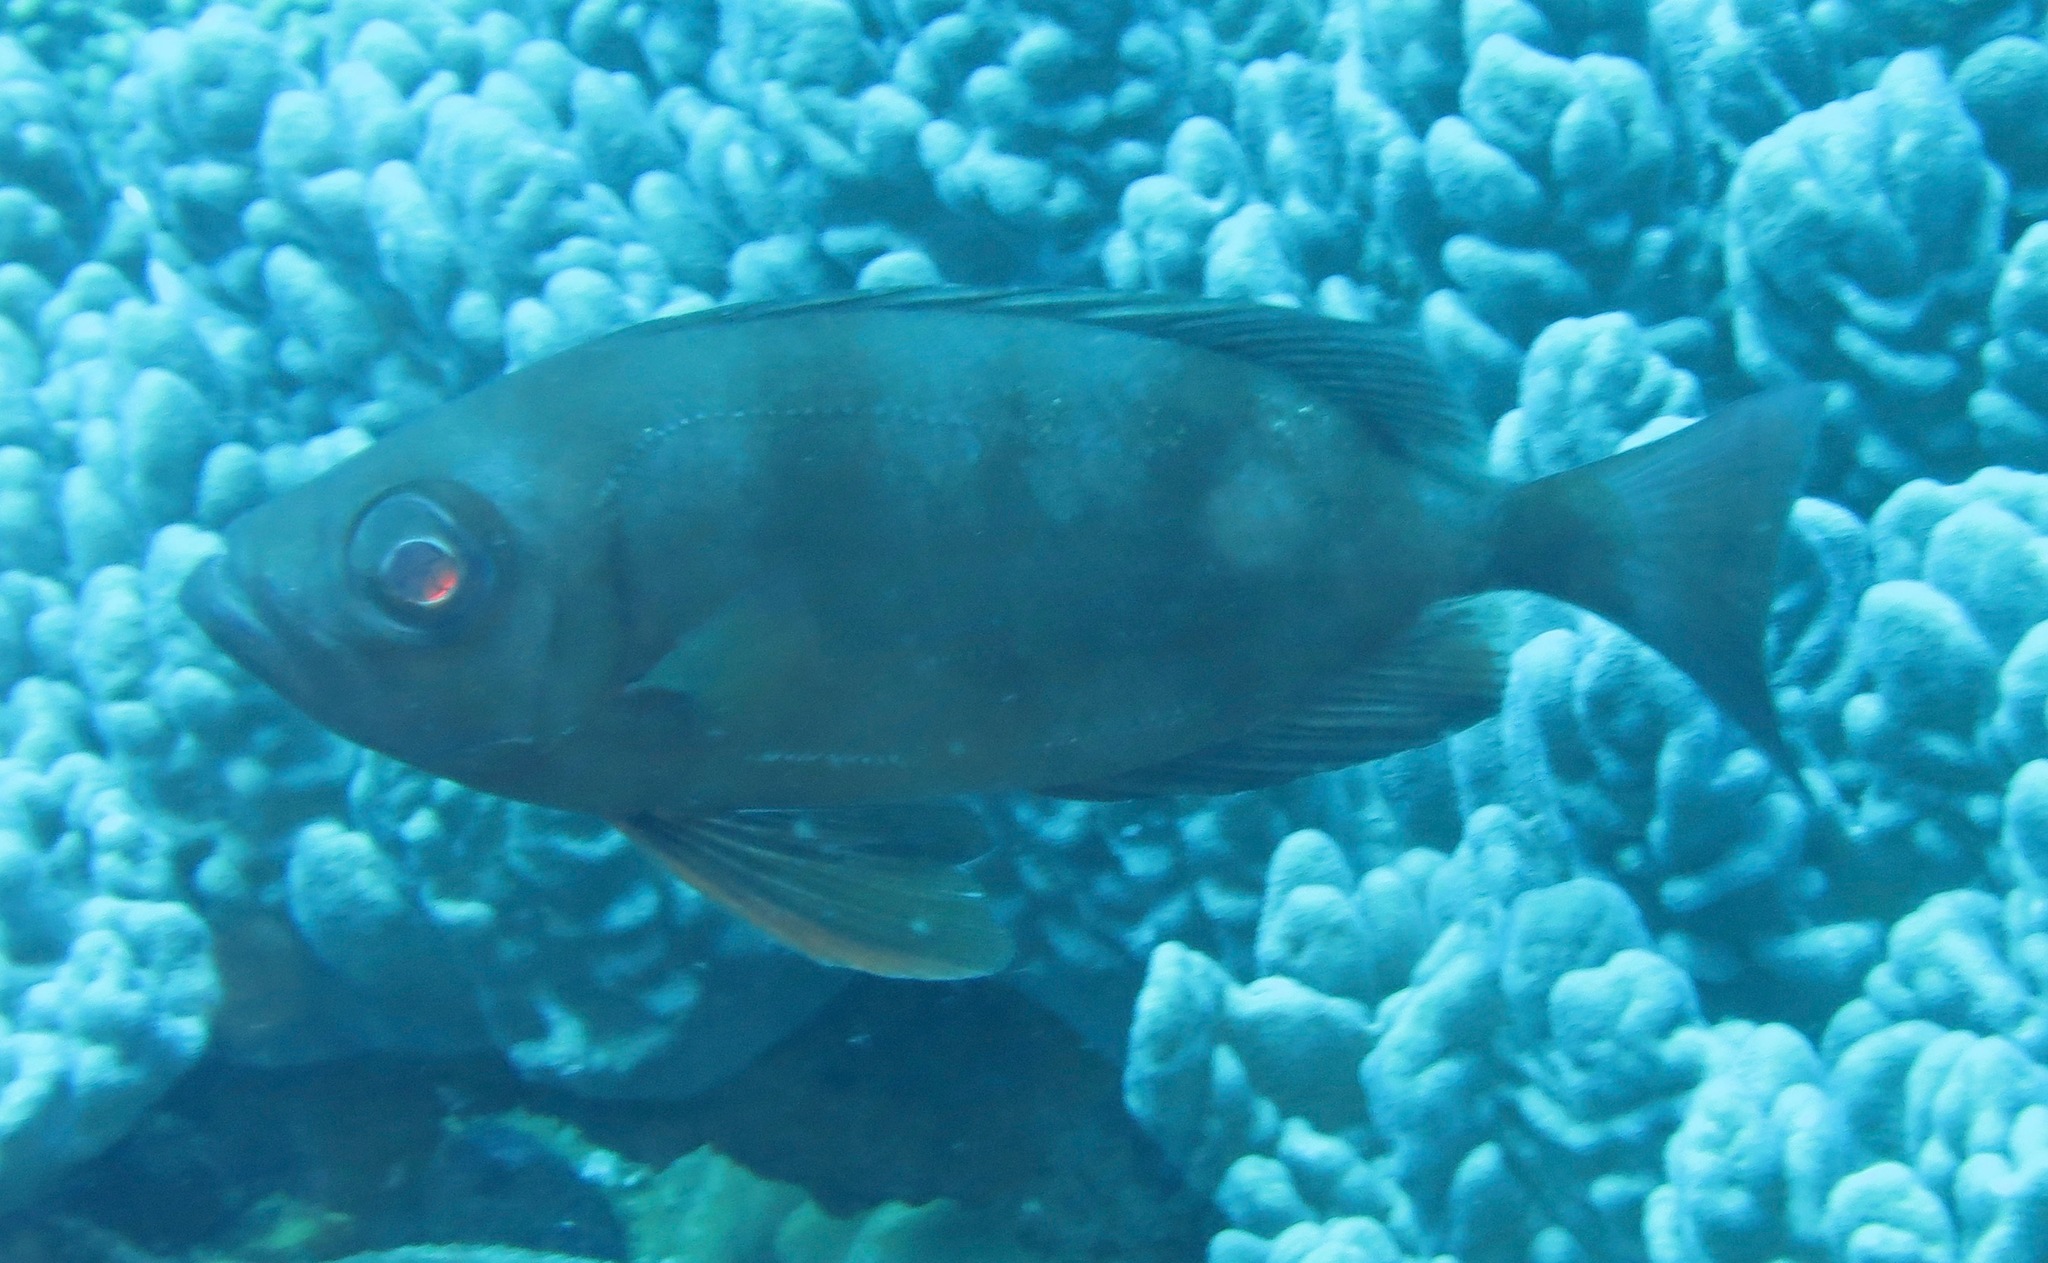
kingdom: Animalia
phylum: Chordata
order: Perciformes
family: Priacanthidae
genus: Priacanthus
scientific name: Priacanthus hamrur
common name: Moontail bullseye
